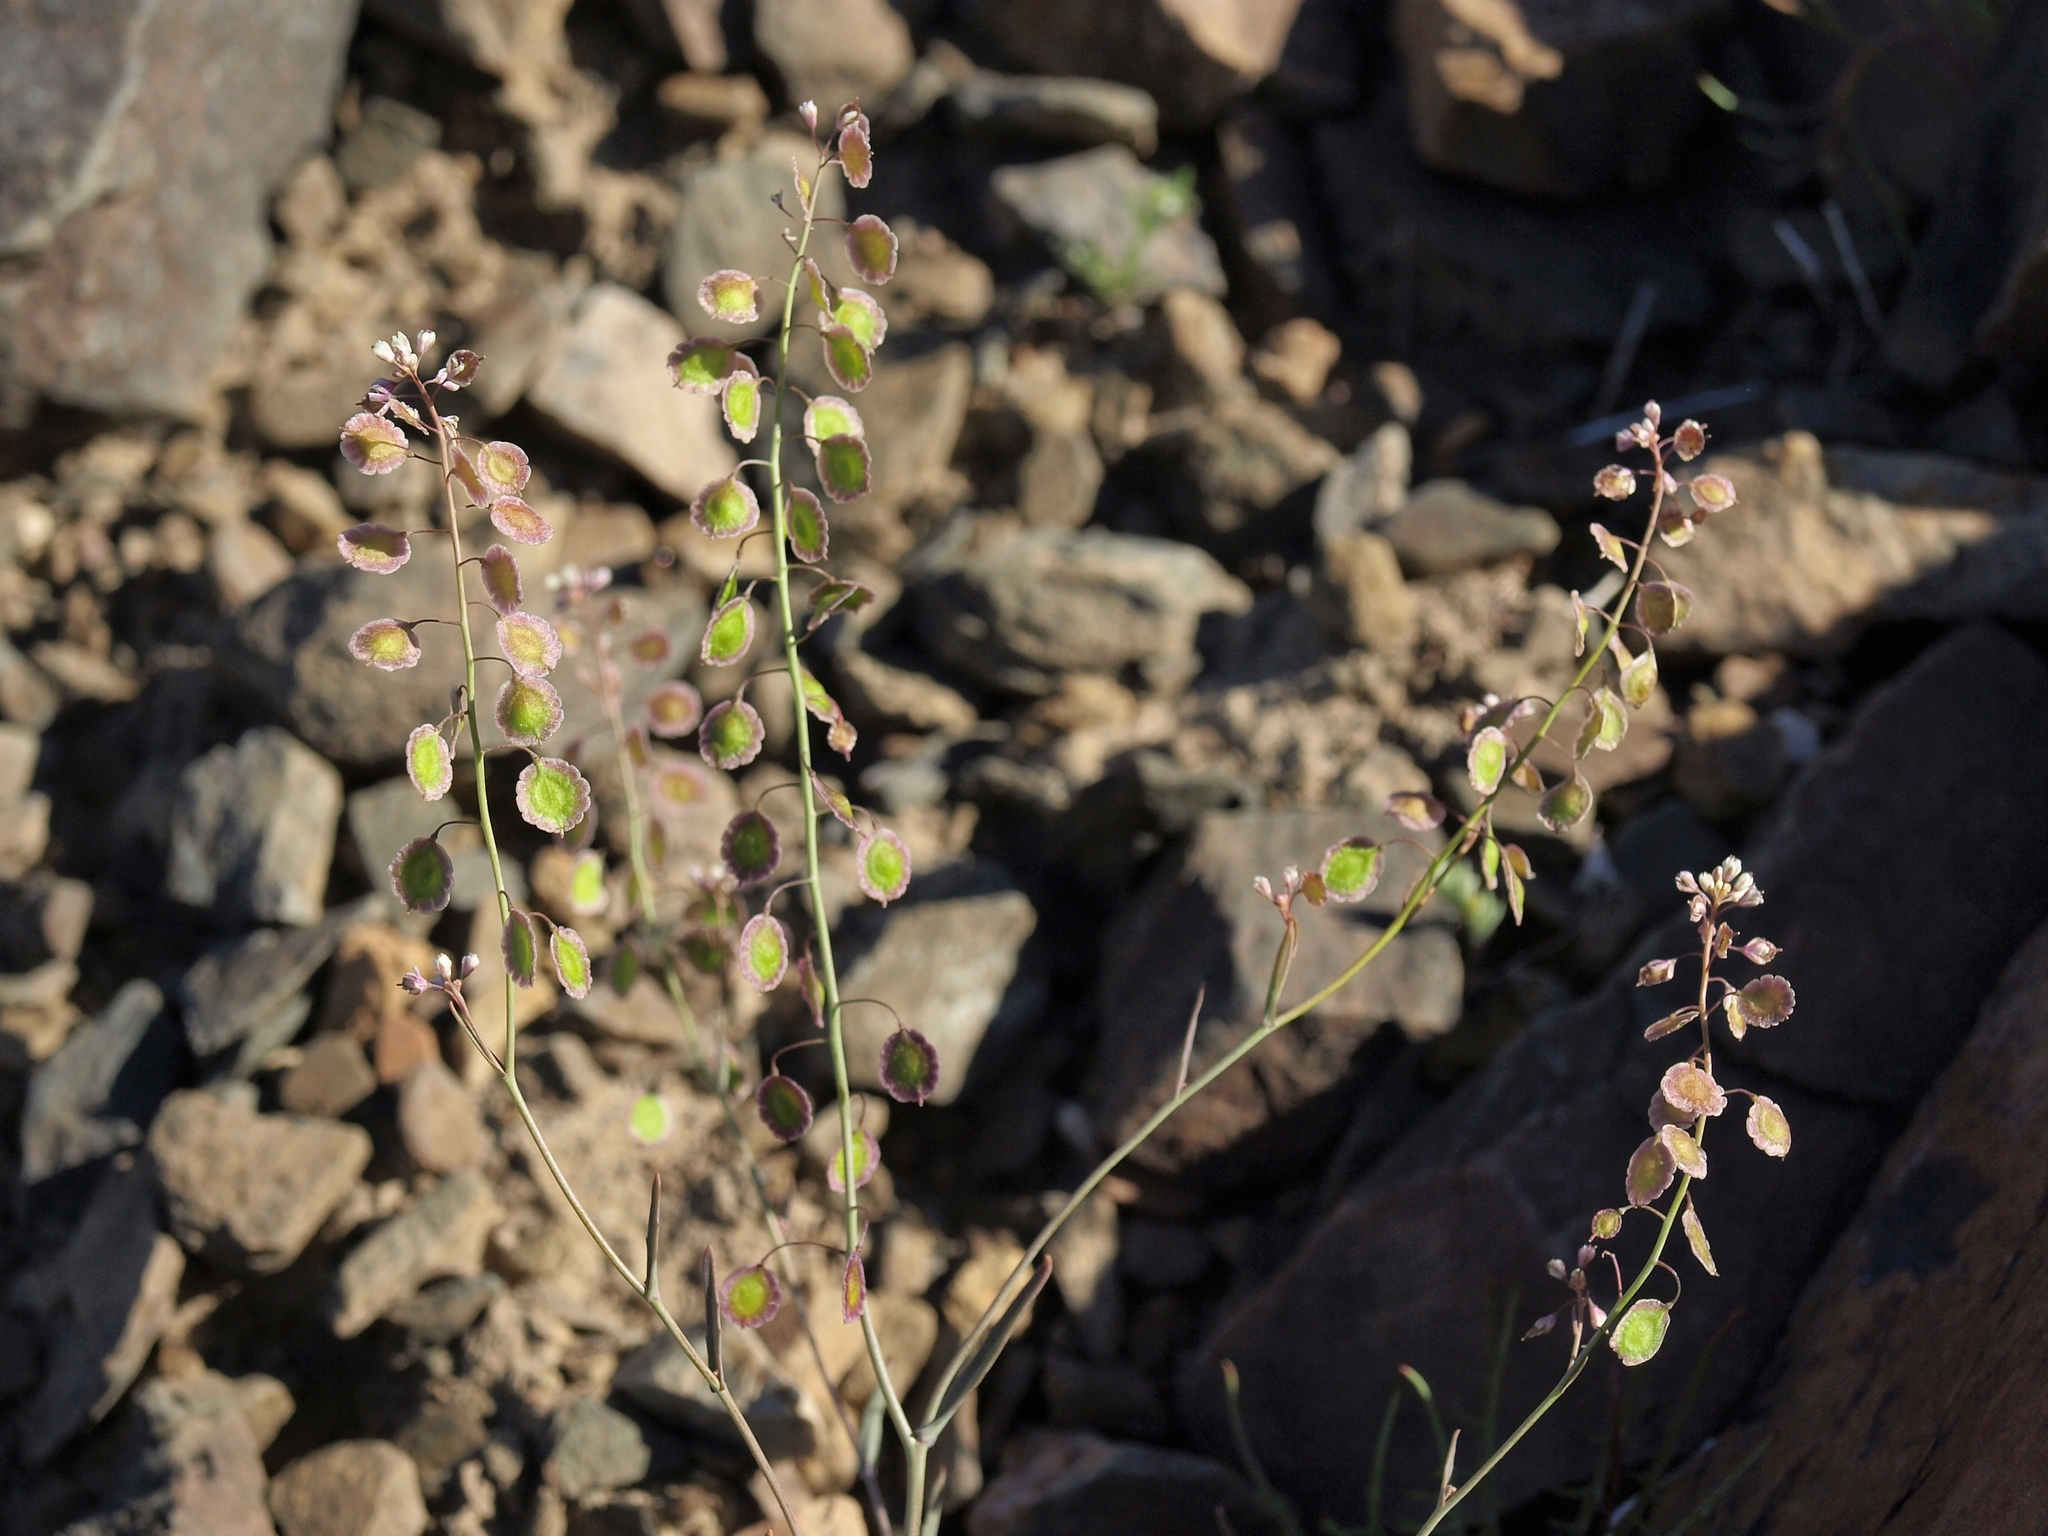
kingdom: Plantae
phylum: Tracheophyta
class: Magnoliopsida
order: Brassicales
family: Brassicaceae
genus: Thysanocarpus
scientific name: Thysanocarpus curvipes
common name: Sand fringepod
